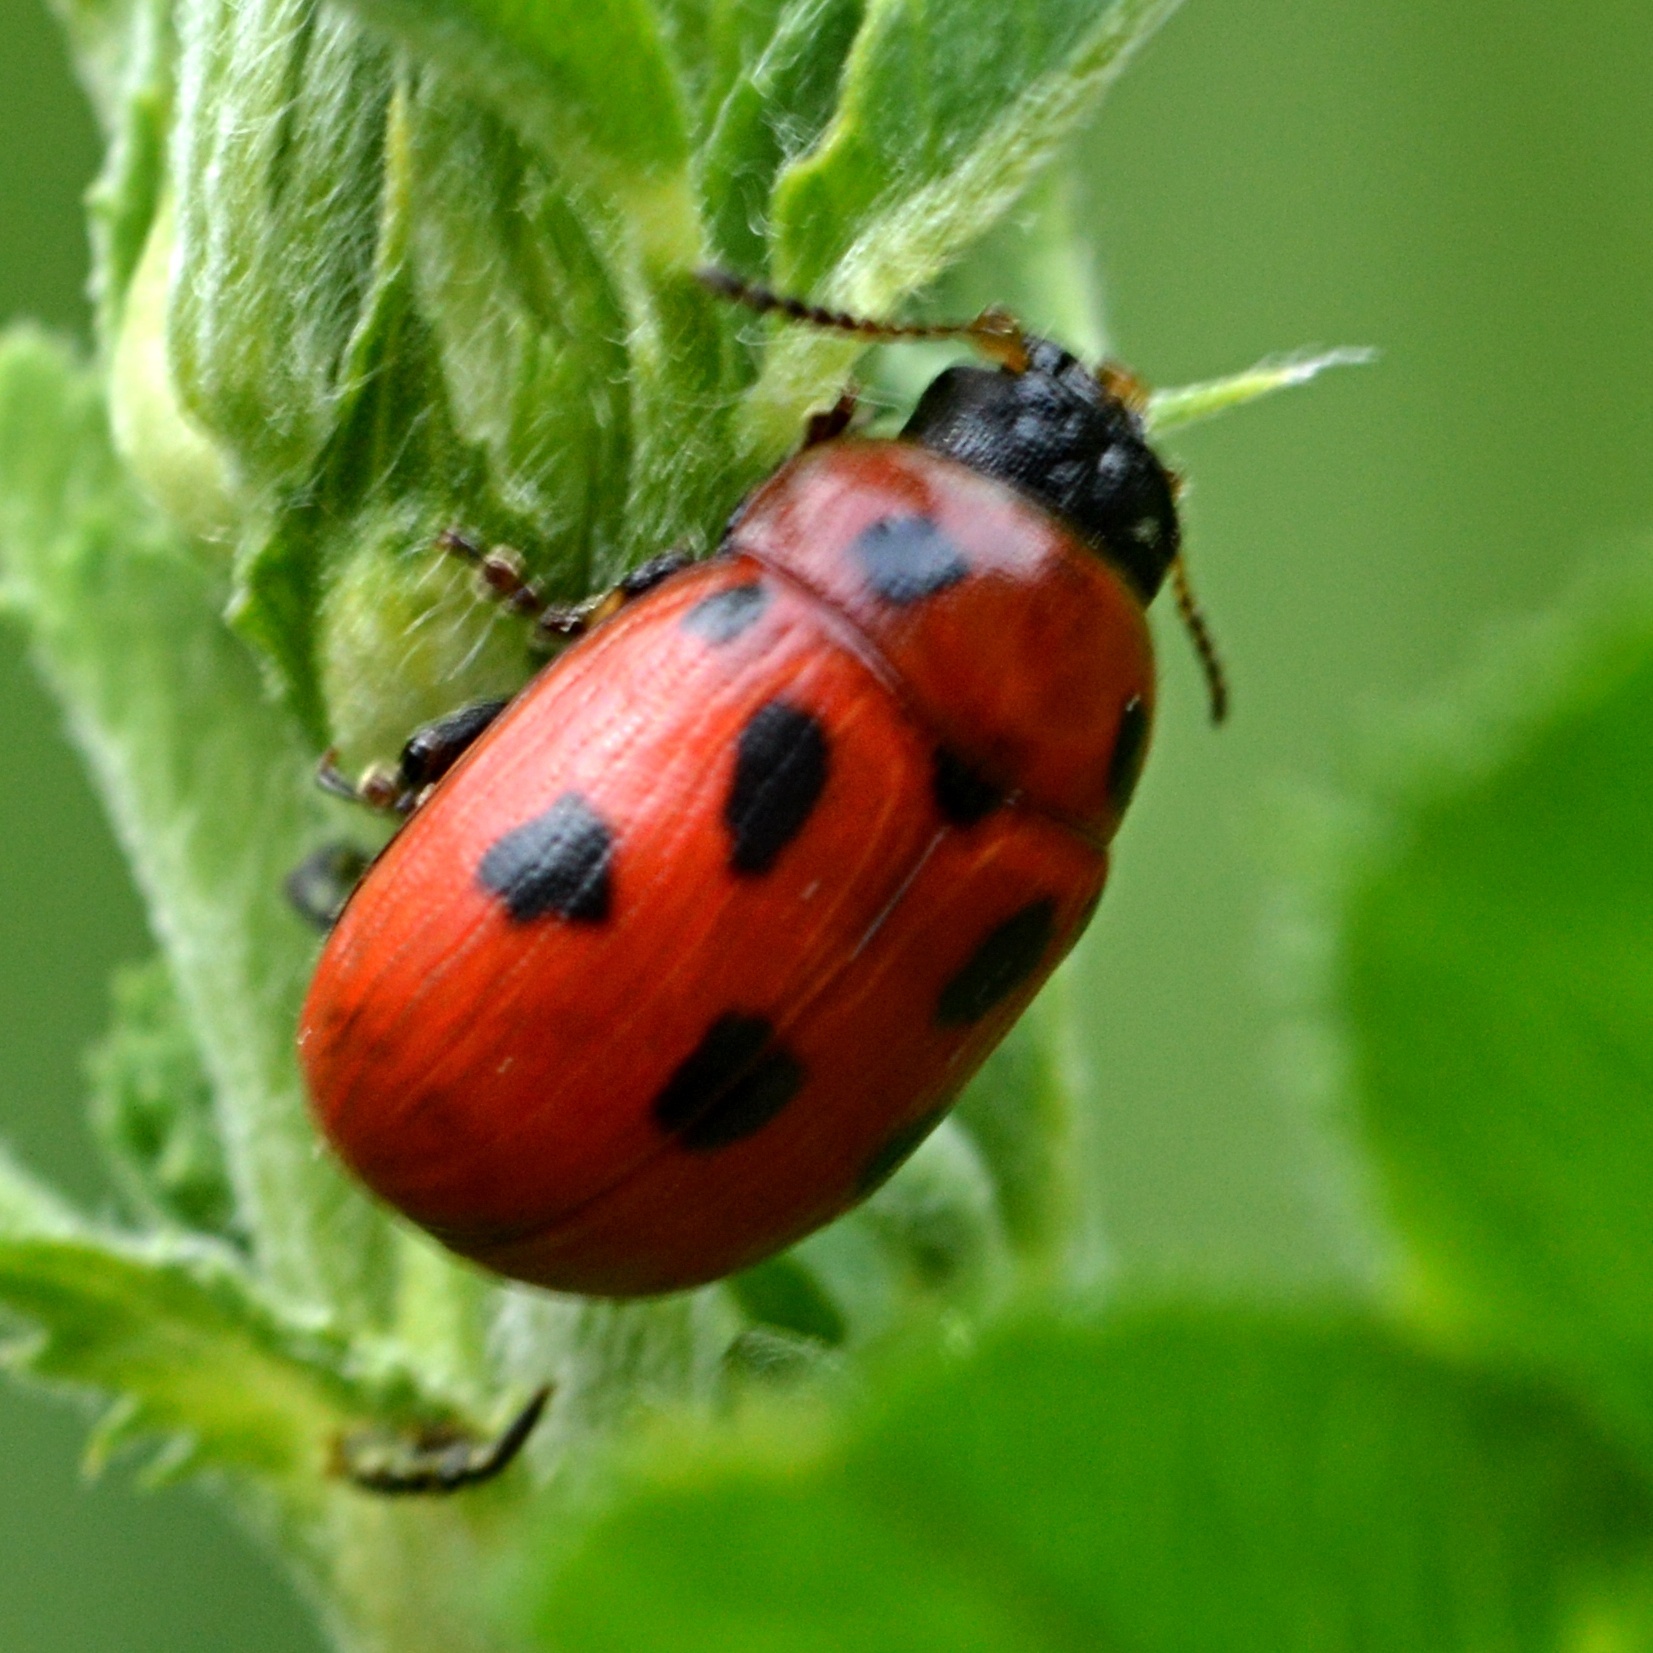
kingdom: Animalia
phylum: Arthropoda
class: Insecta
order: Coleoptera
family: Chrysomelidae
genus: Gonioctena
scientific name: Gonioctena fornicata
